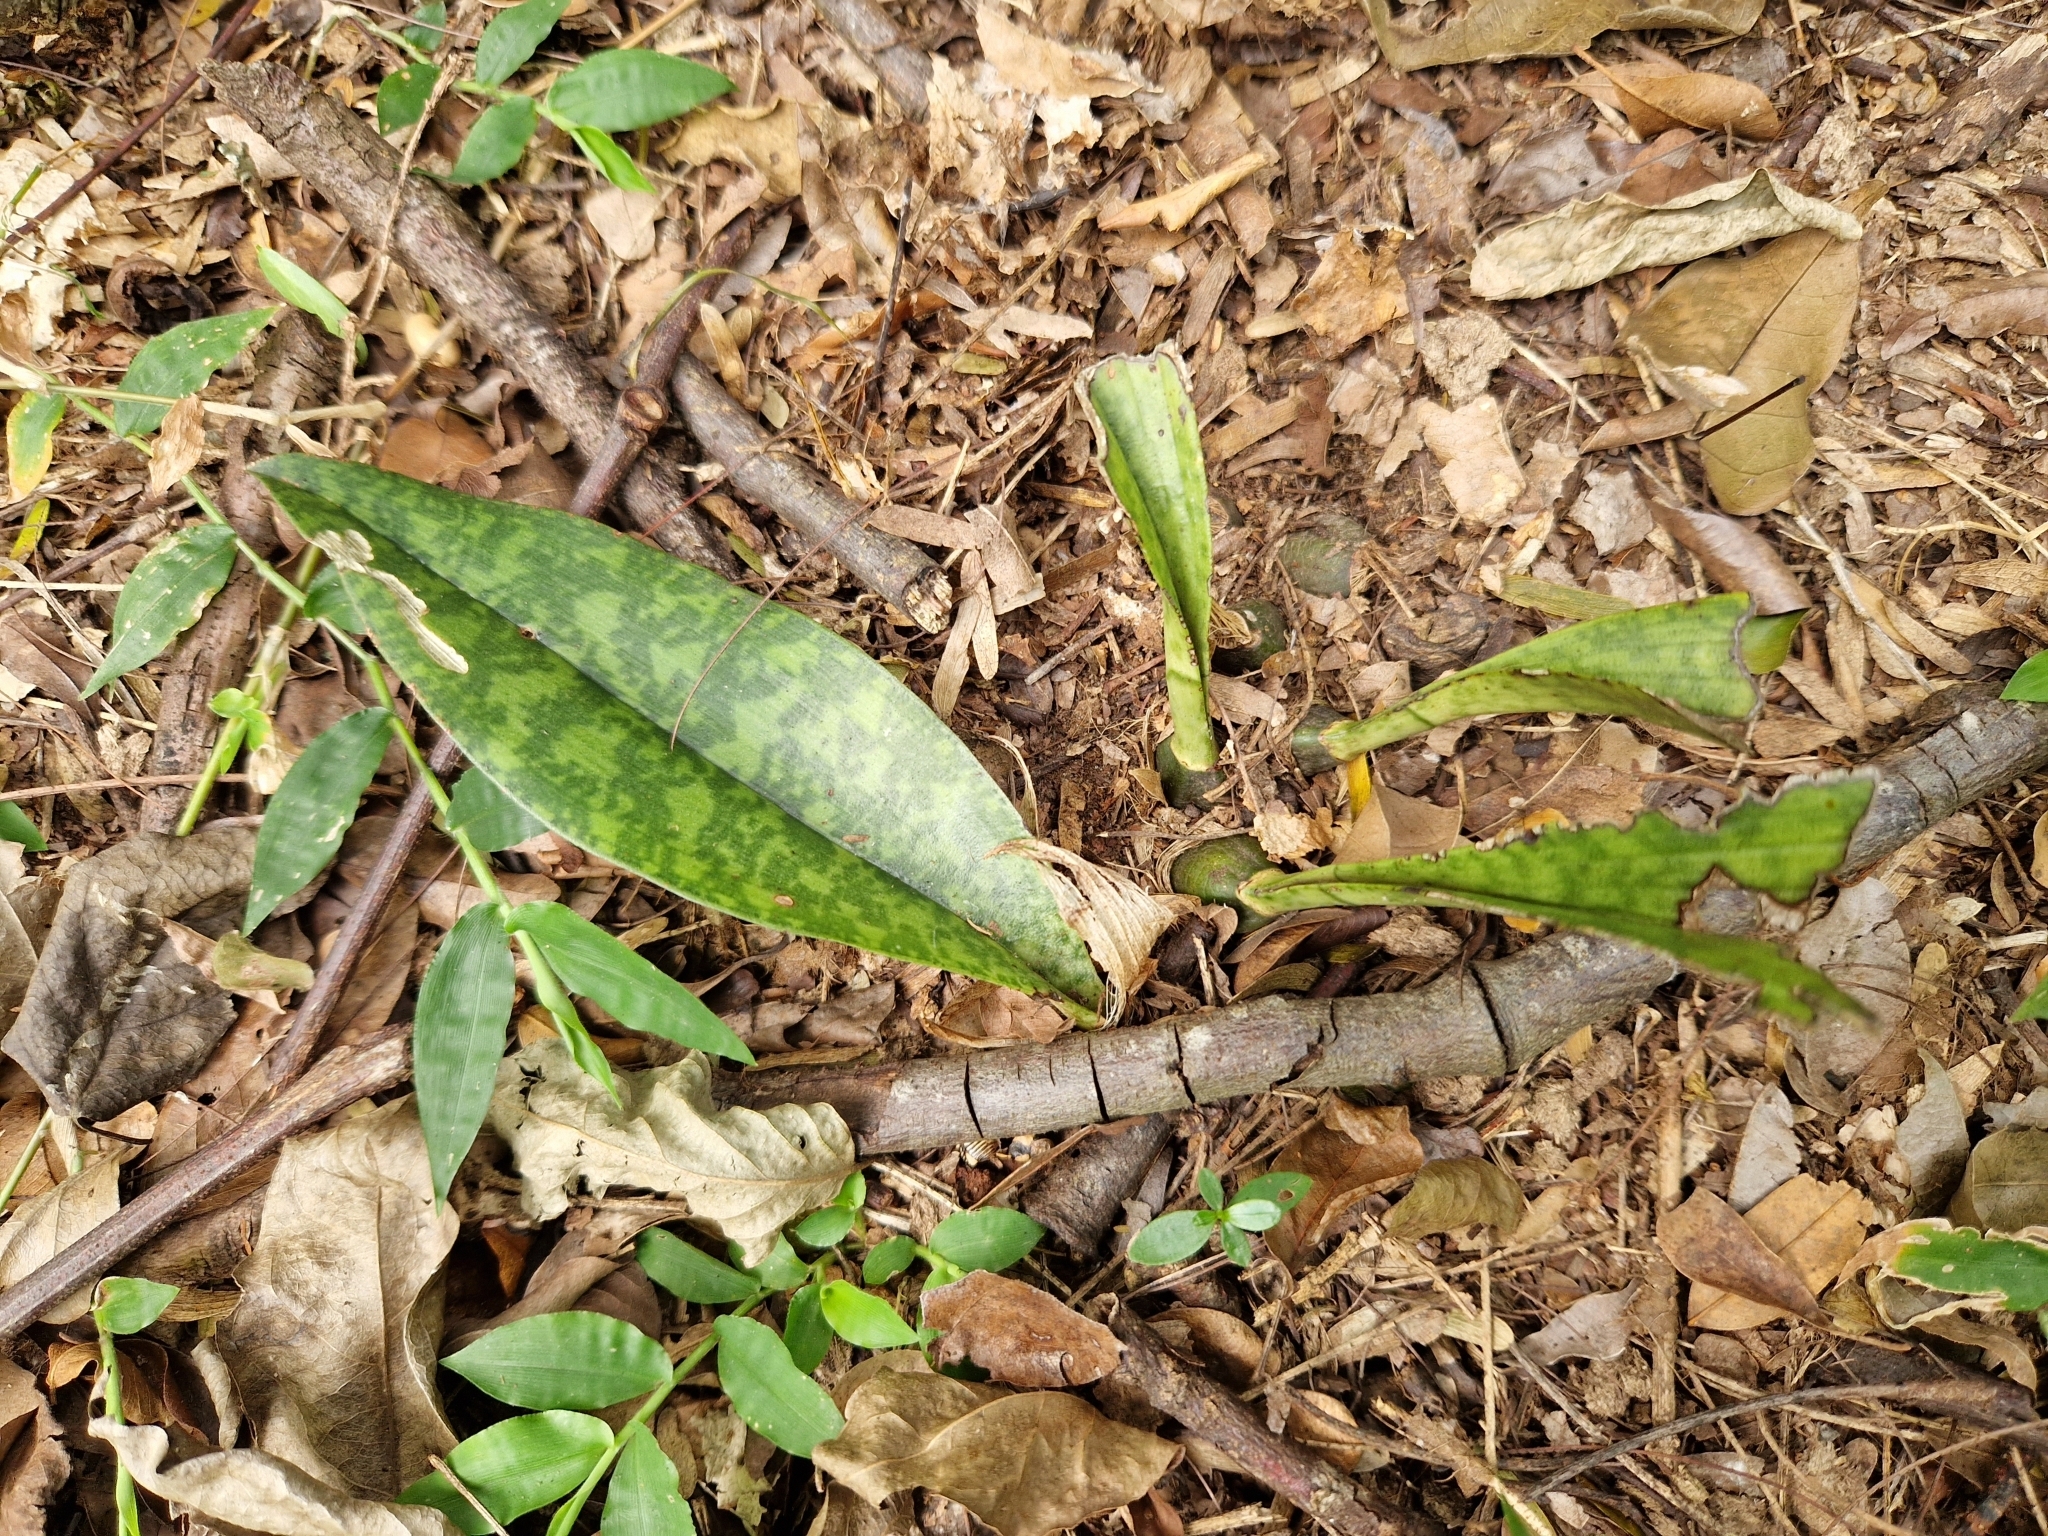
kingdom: Plantae
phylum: Tracheophyta
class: Liliopsida
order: Asparagales
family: Orchidaceae
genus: Eulophia
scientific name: Eulophia maculata
